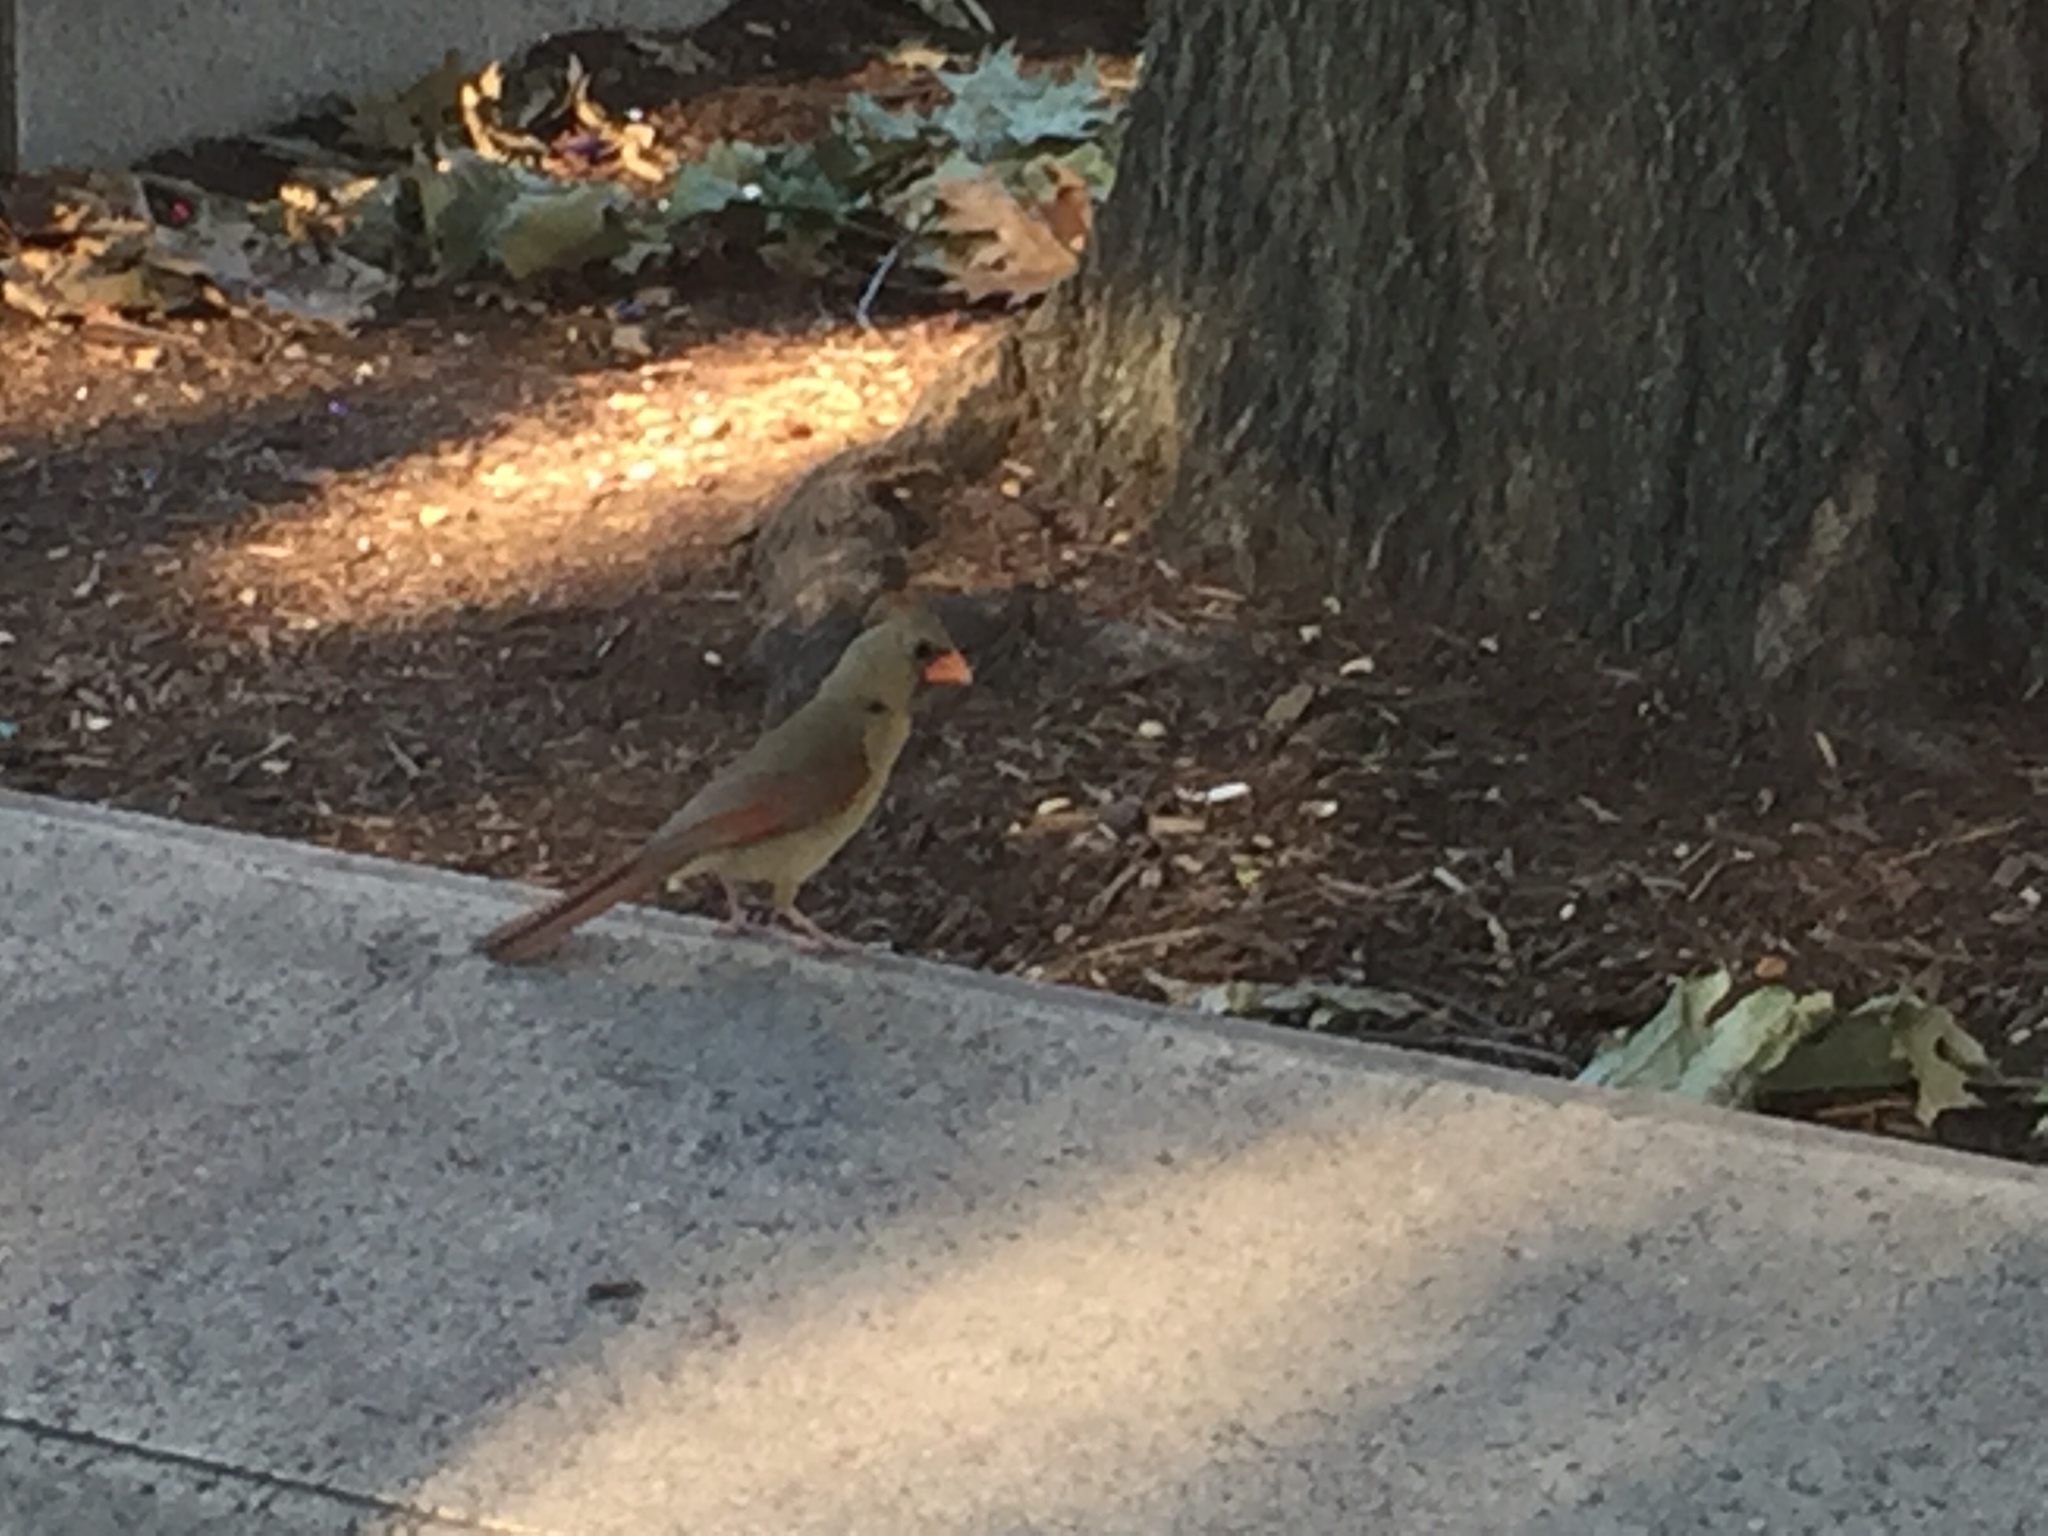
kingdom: Animalia
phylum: Chordata
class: Aves
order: Passeriformes
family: Cardinalidae
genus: Cardinalis
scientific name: Cardinalis cardinalis
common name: Northern cardinal
